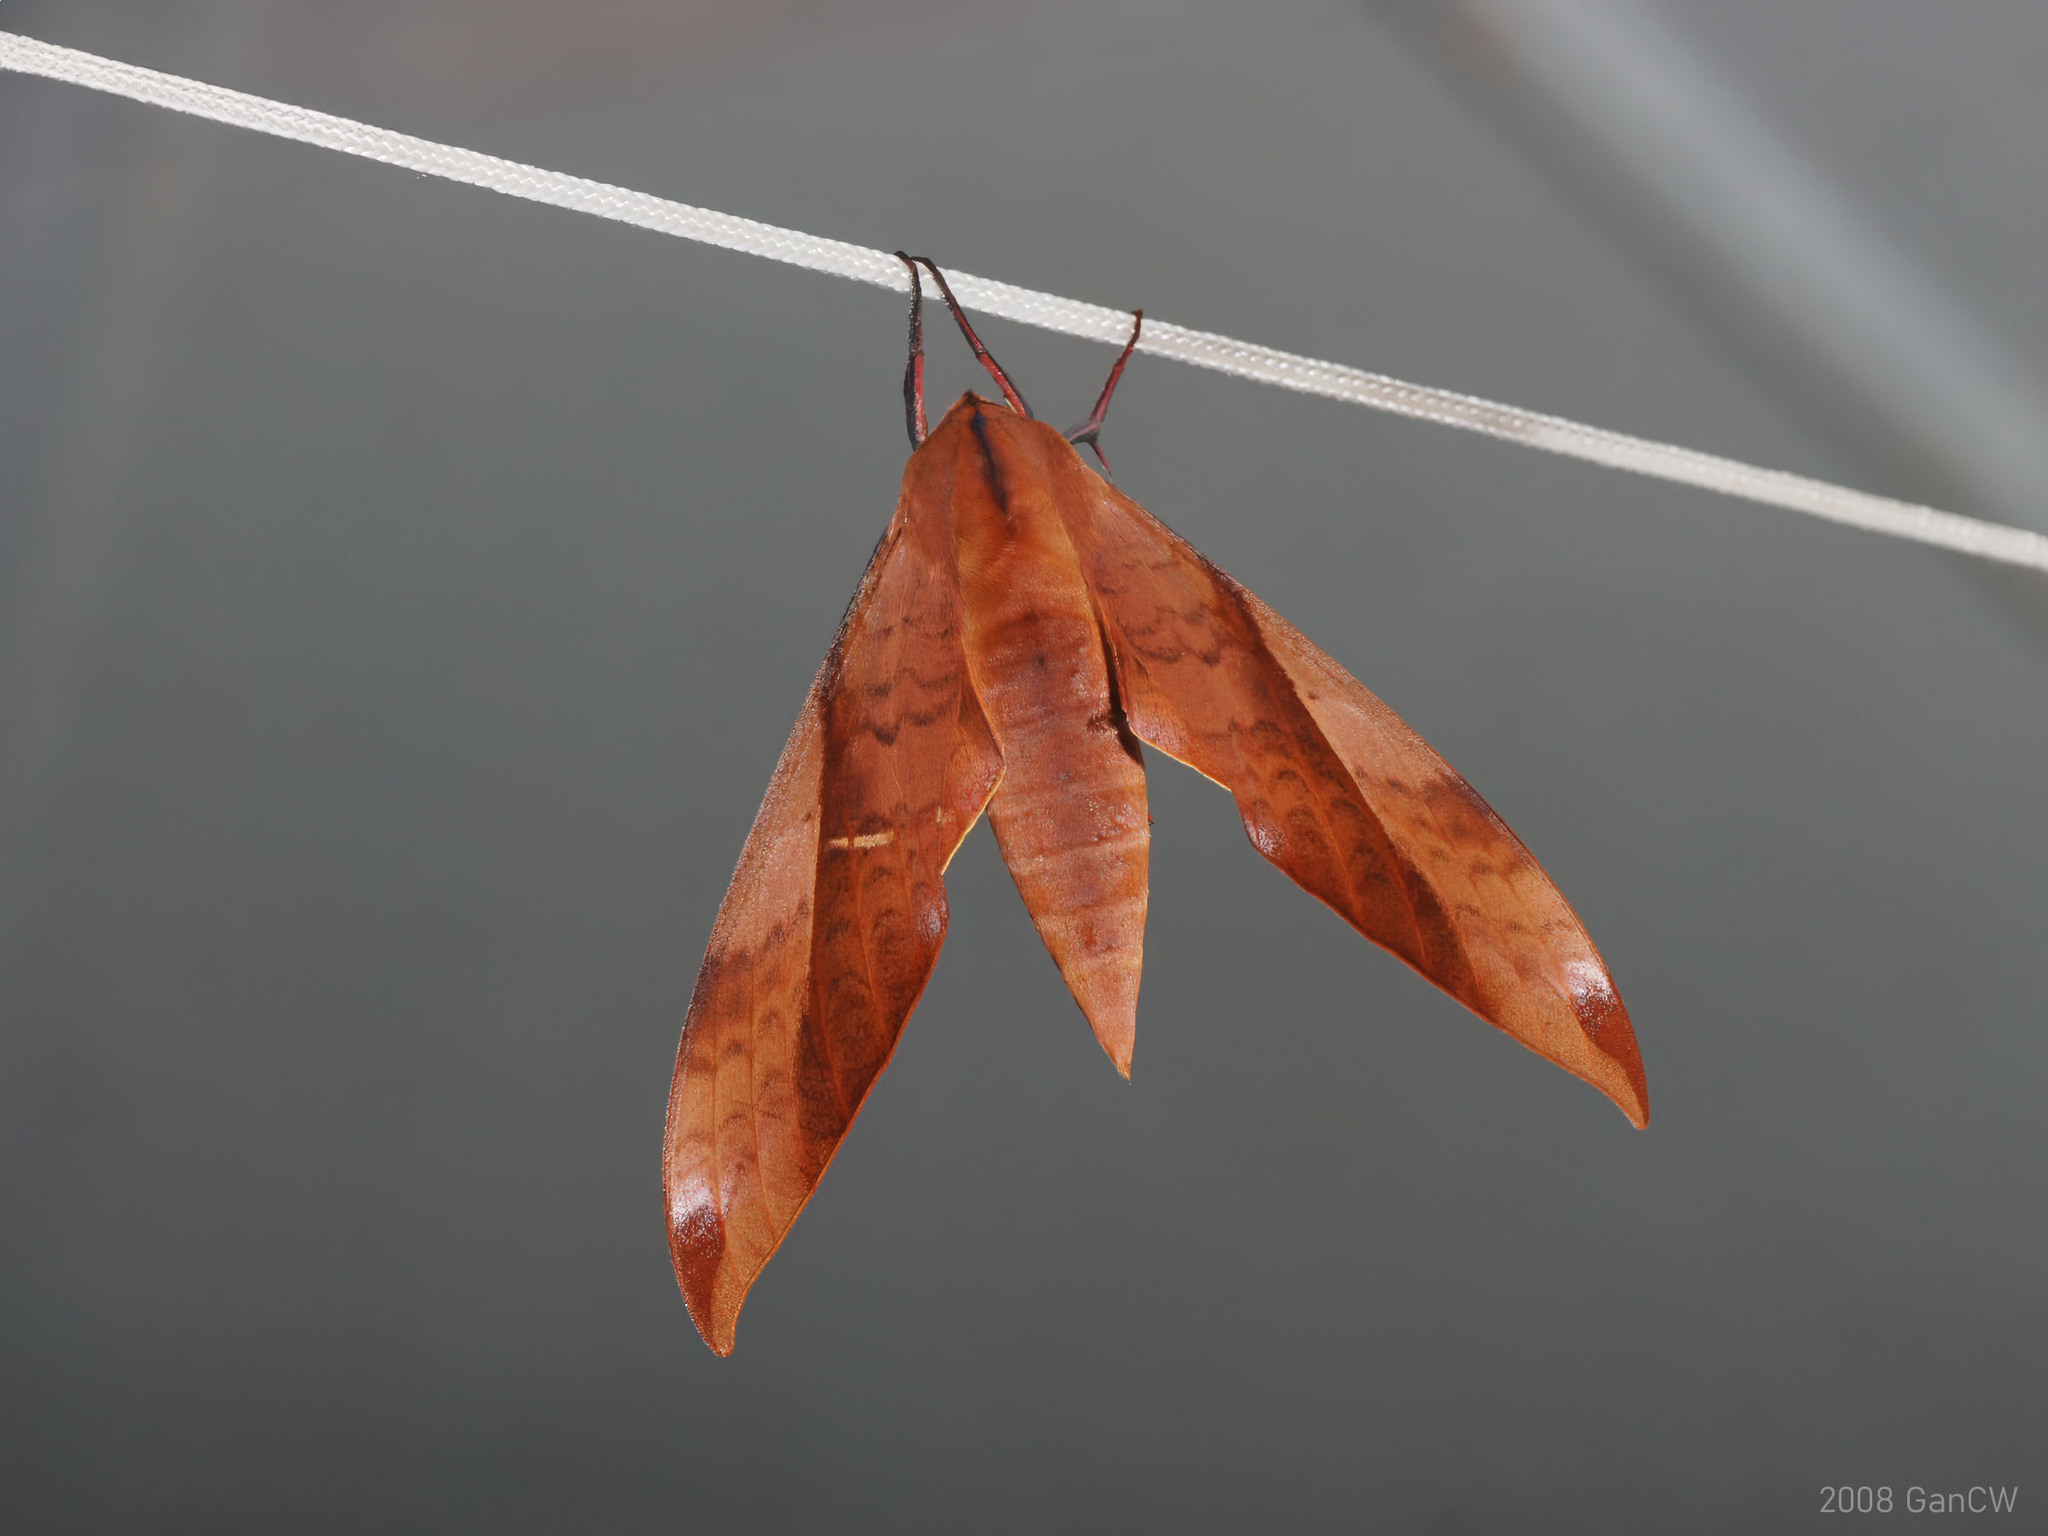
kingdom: Animalia
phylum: Arthropoda
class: Insecta
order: Lepidoptera
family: Sphingidae
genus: Clanis
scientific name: Clanis undulosa
